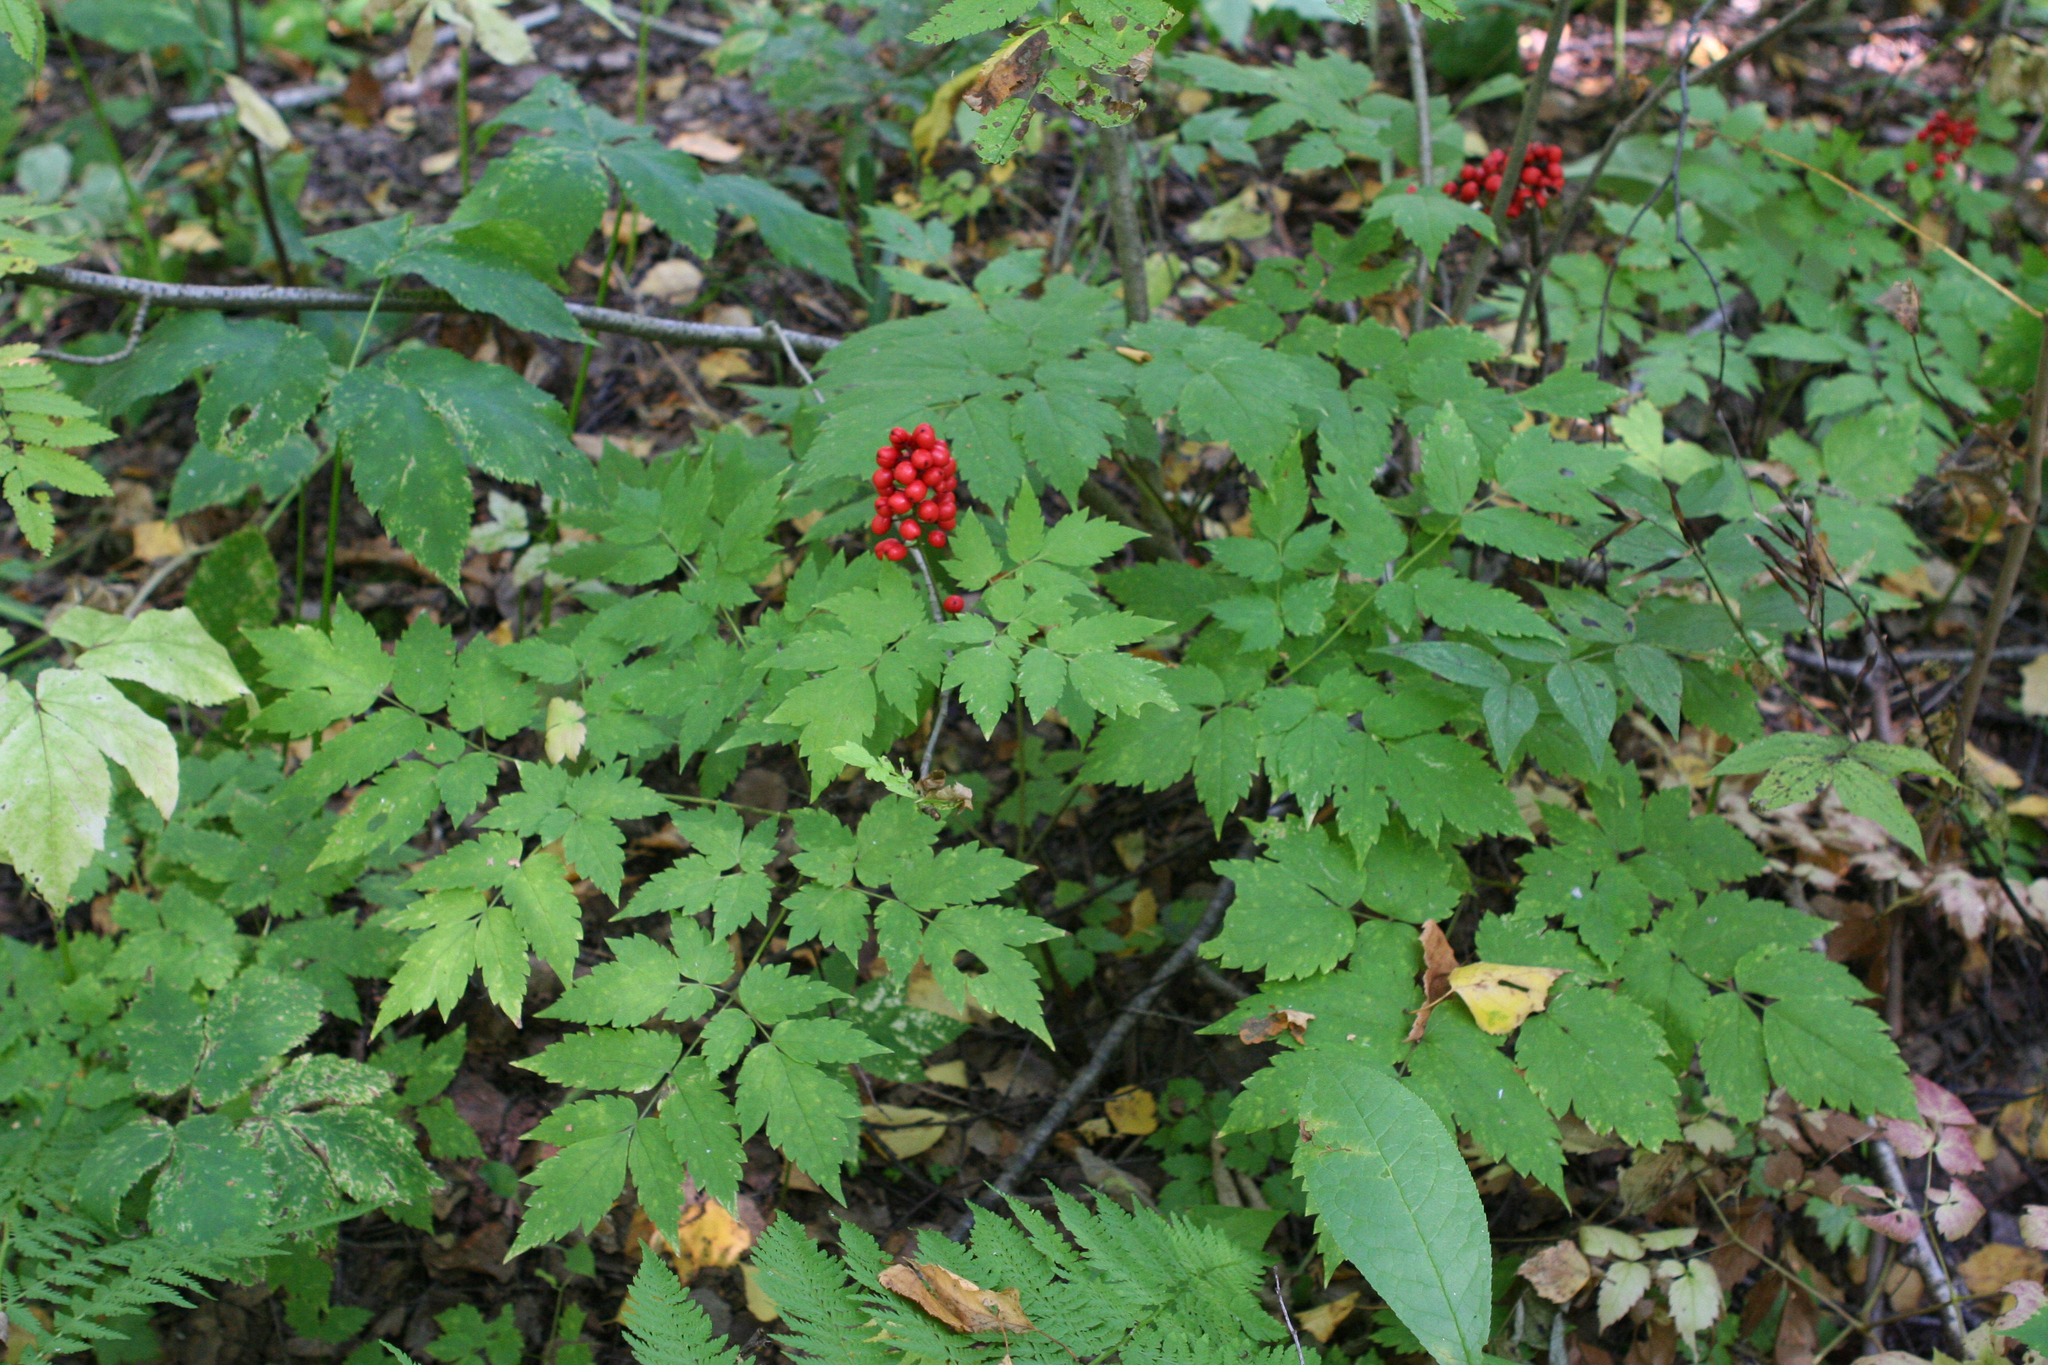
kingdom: Plantae
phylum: Tracheophyta
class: Magnoliopsida
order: Ranunculales
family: Ranunculaceae
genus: Actaea
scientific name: Actaea erythrocarpa
